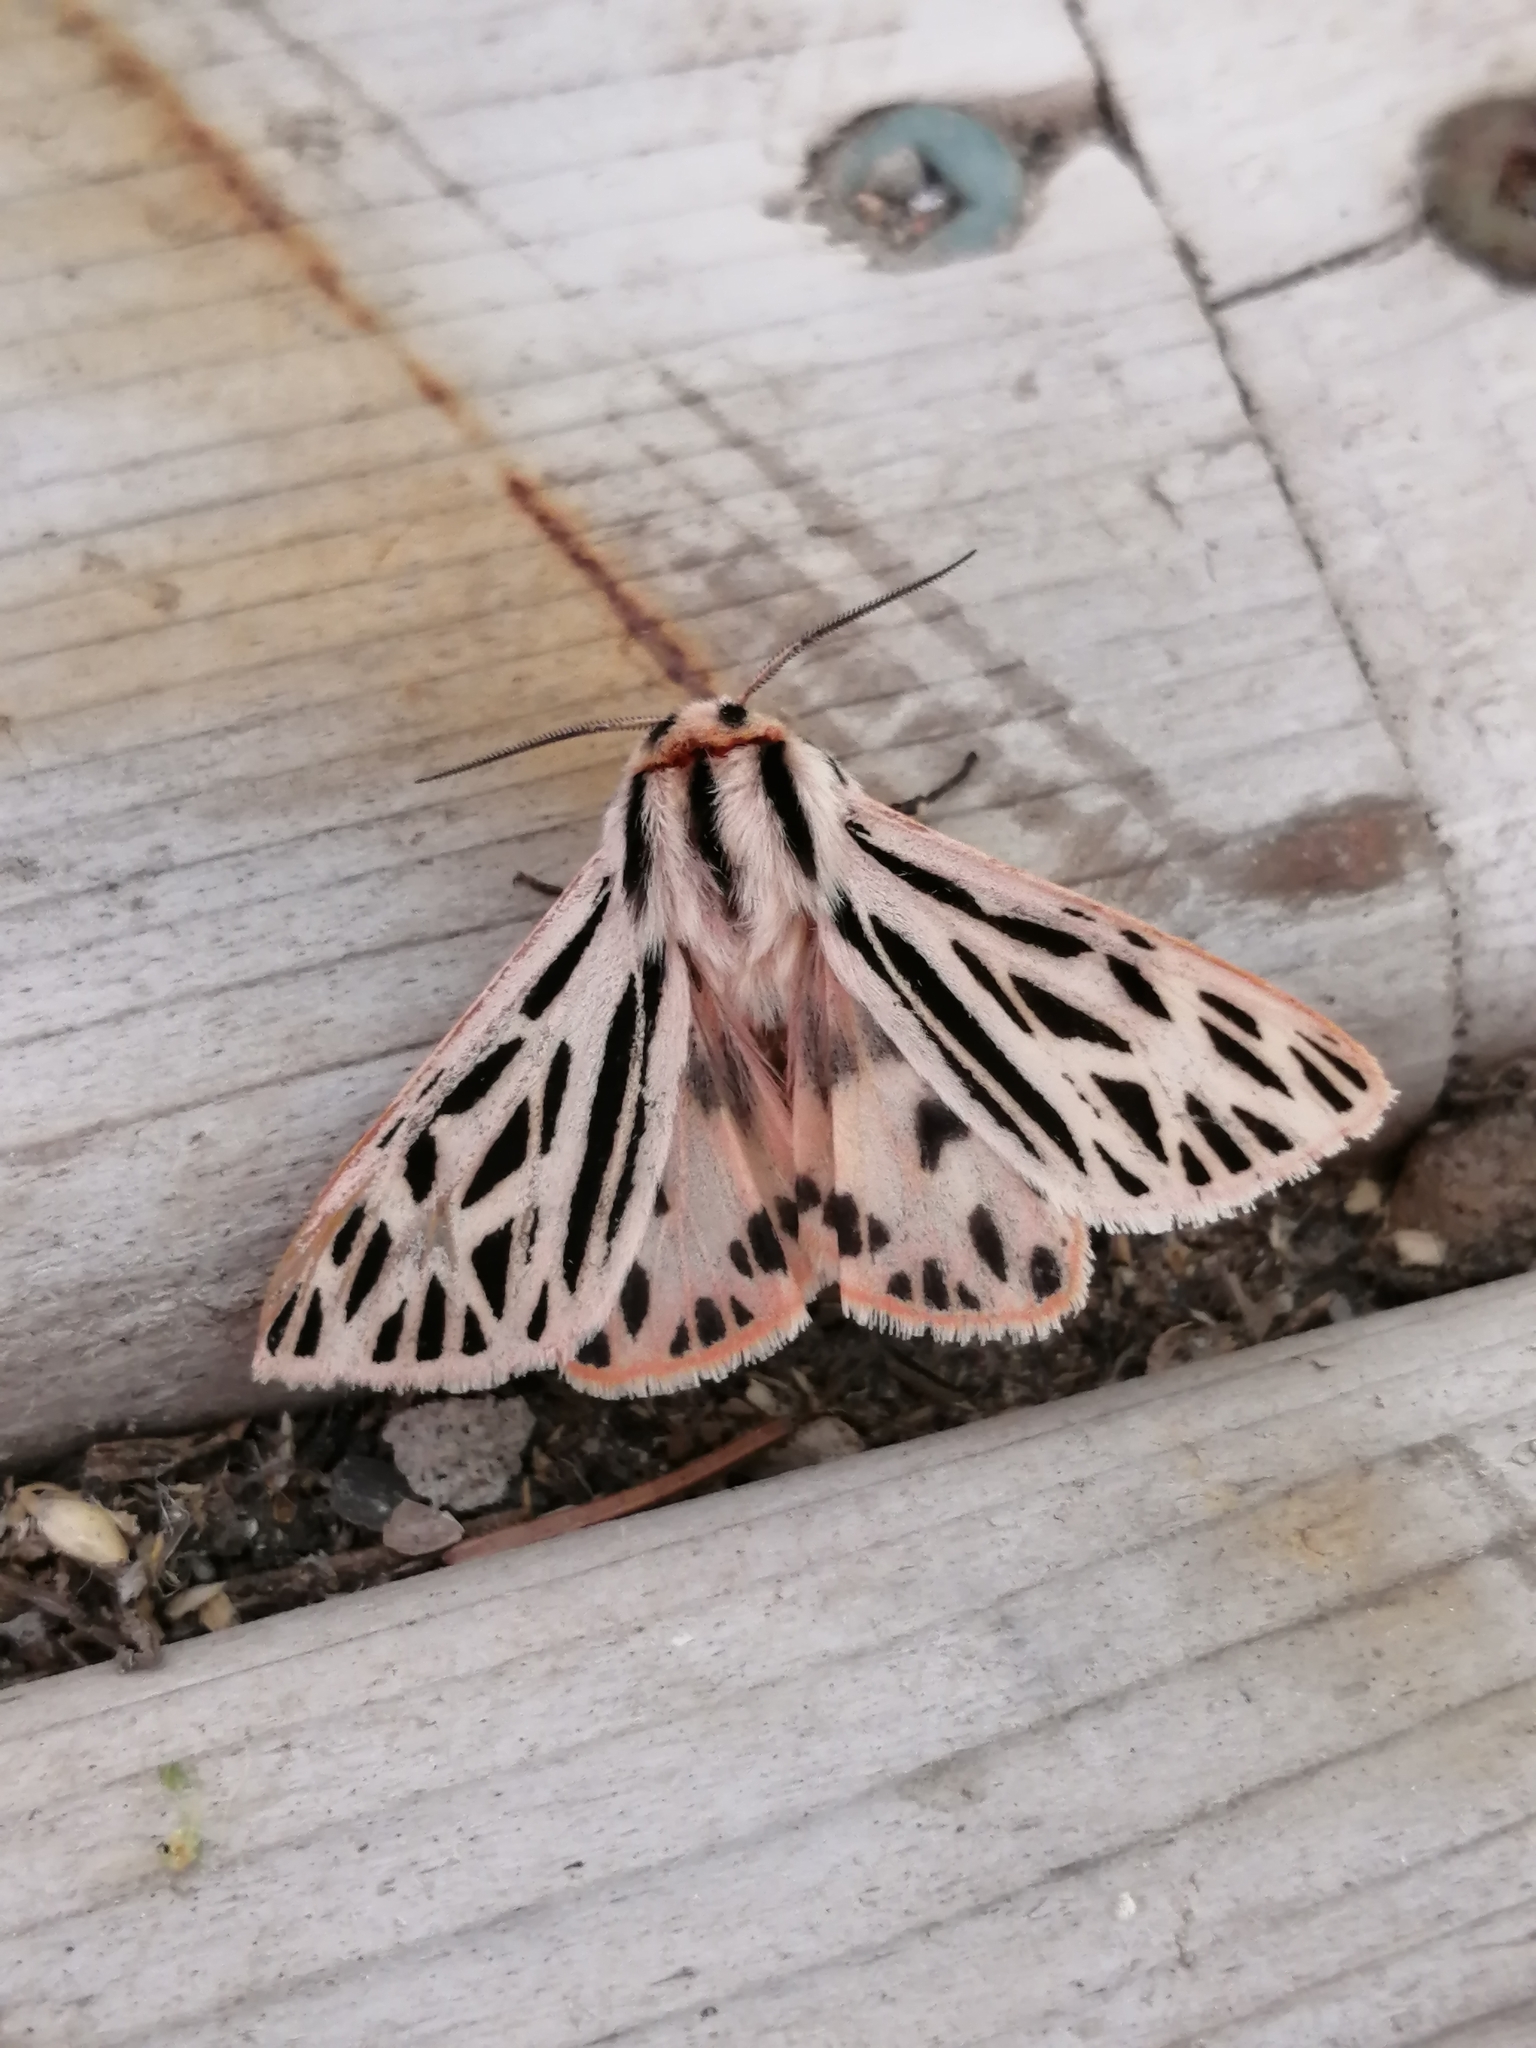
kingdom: Animalia
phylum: Arthropoda
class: Insecta
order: Lepidoptera
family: Erebidae
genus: Apantesis
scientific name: Apantesis arge
